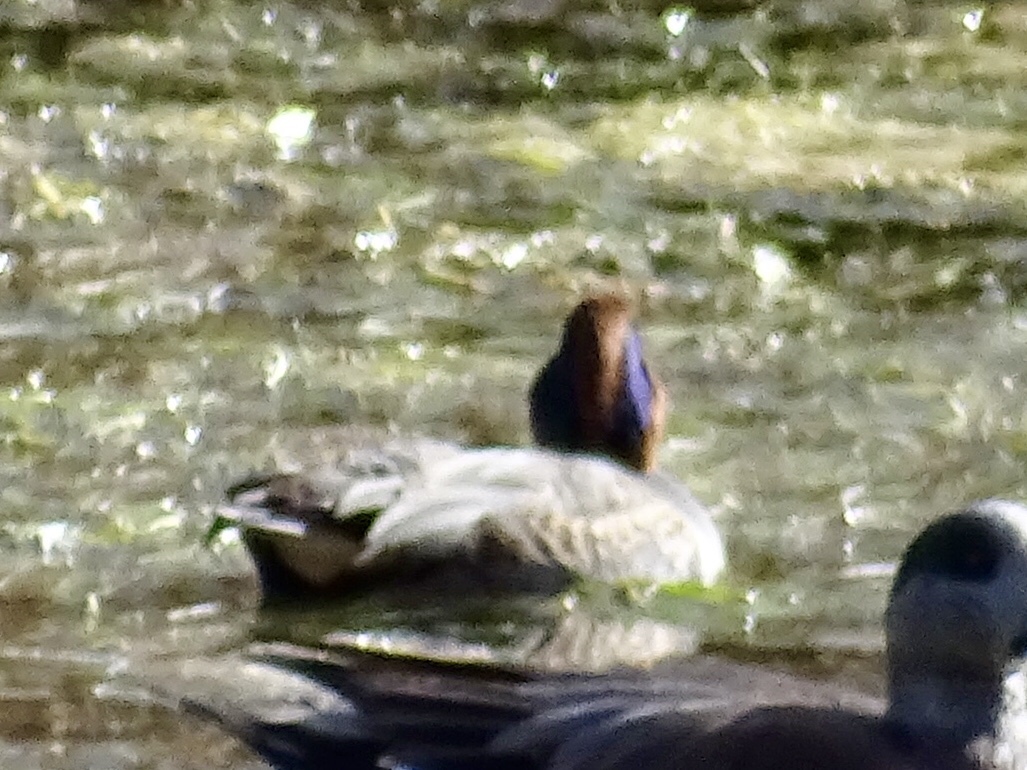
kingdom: Animalia
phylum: Chordata
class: Aves
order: Anseriformes
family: Anatidae
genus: Anas
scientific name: Anas crecca
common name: Eurasian teal
